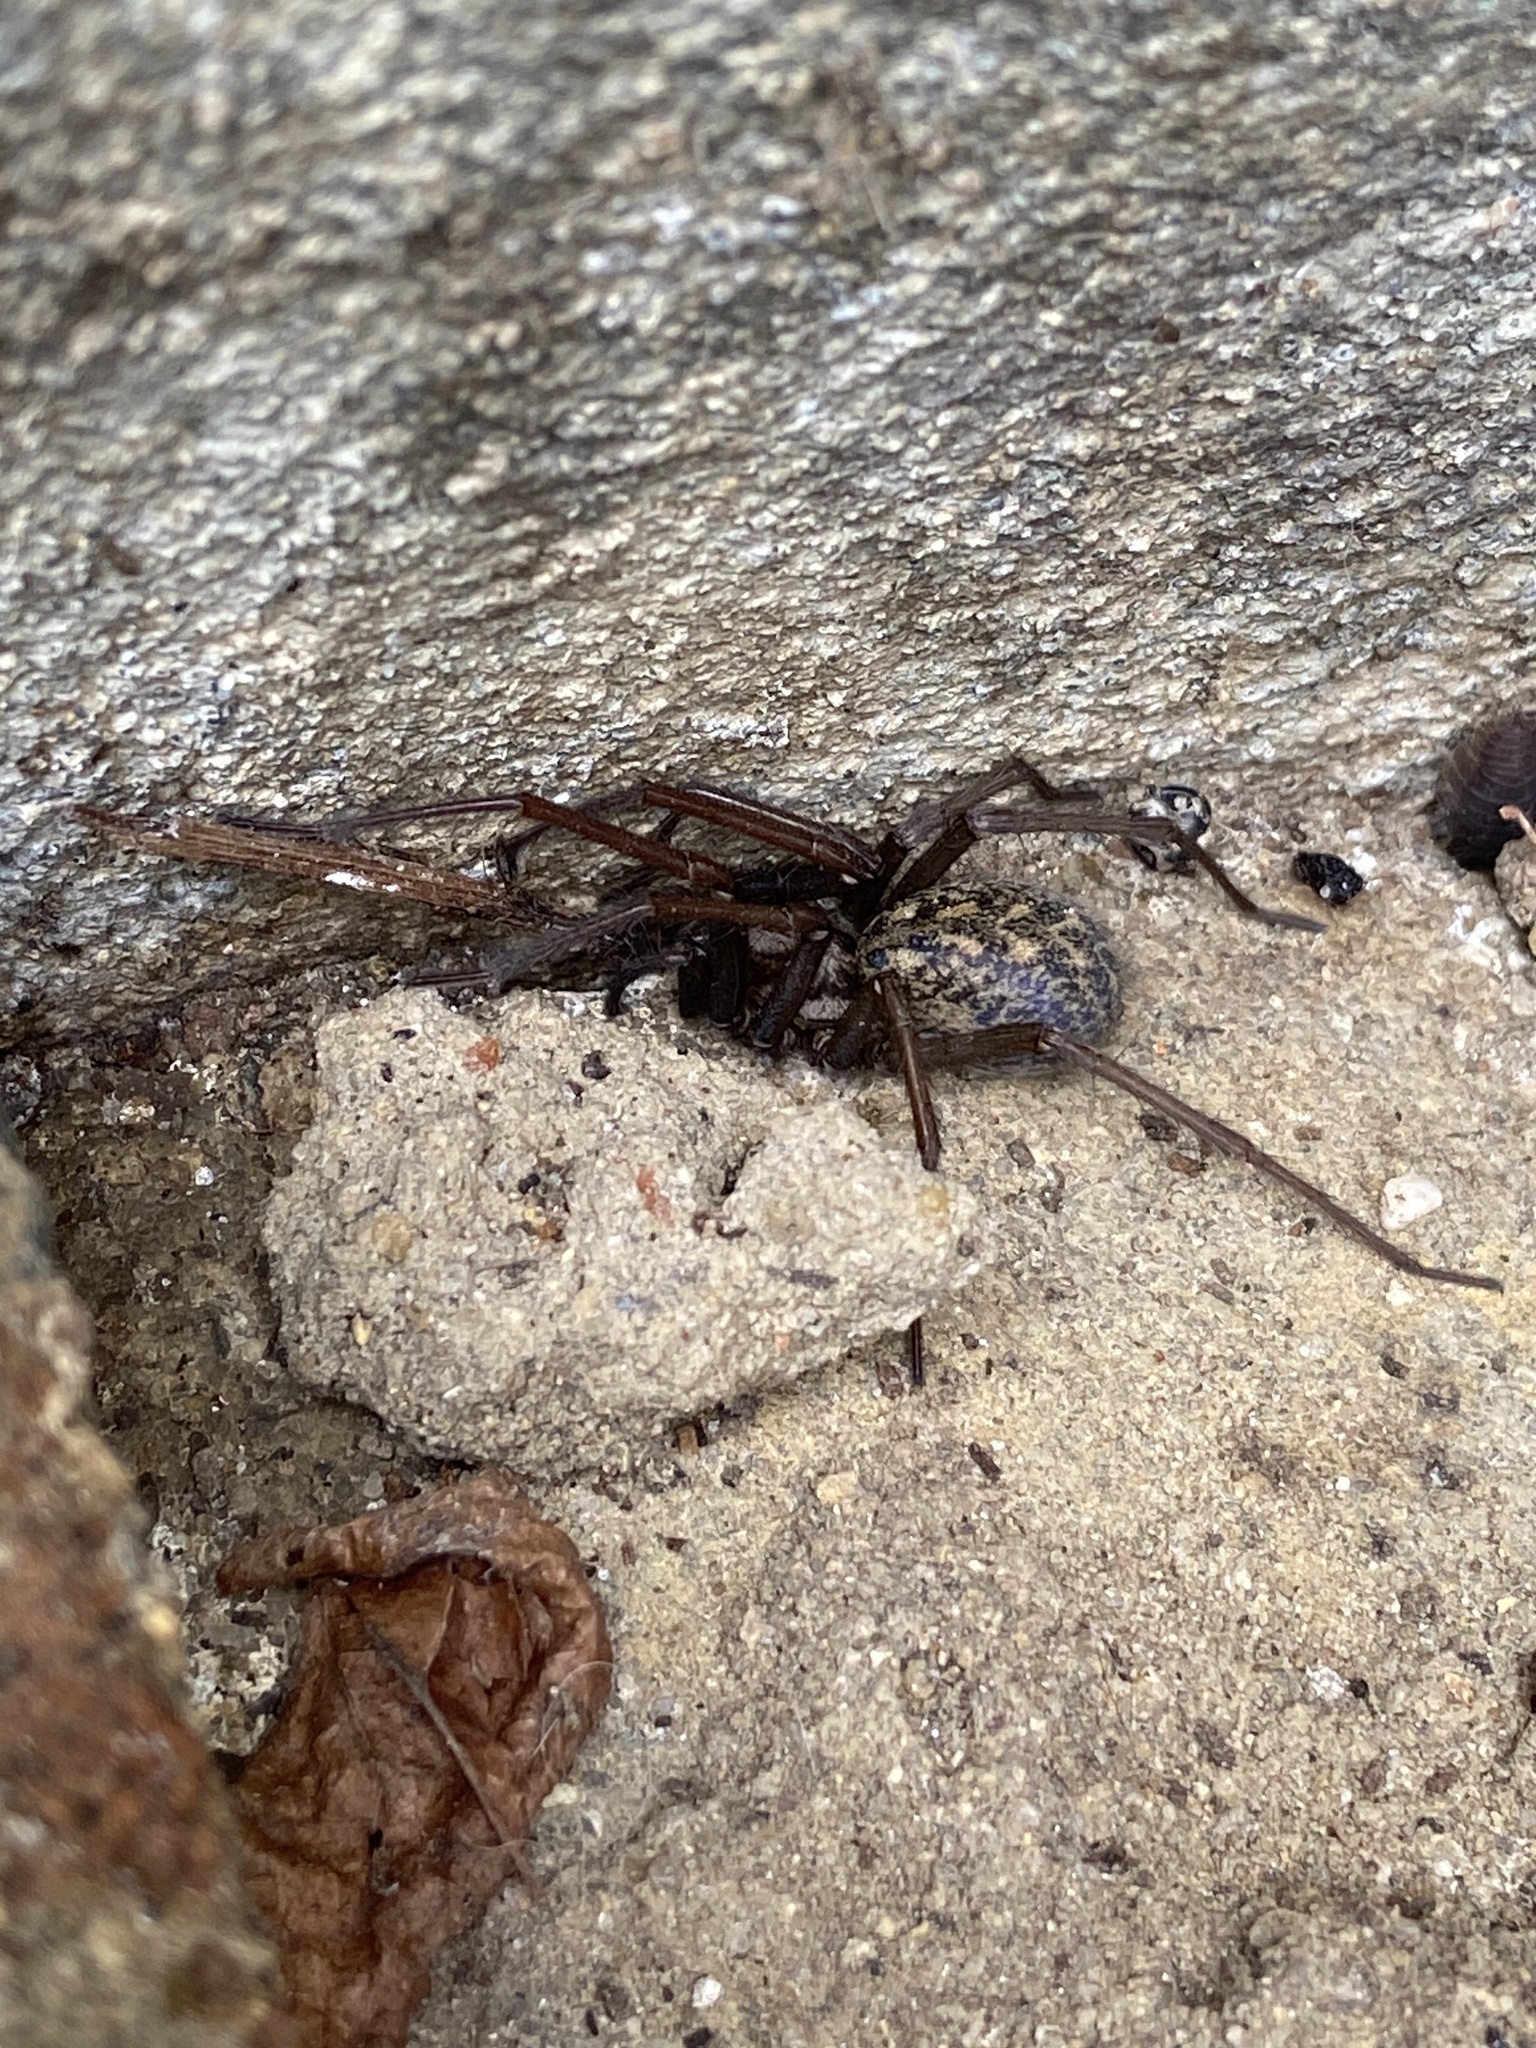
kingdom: Animalia
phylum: Arthropoda
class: Arachnida
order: Araneae
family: Agelenidae
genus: Eratigena
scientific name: Eratigena atrica
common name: Giant house spider
